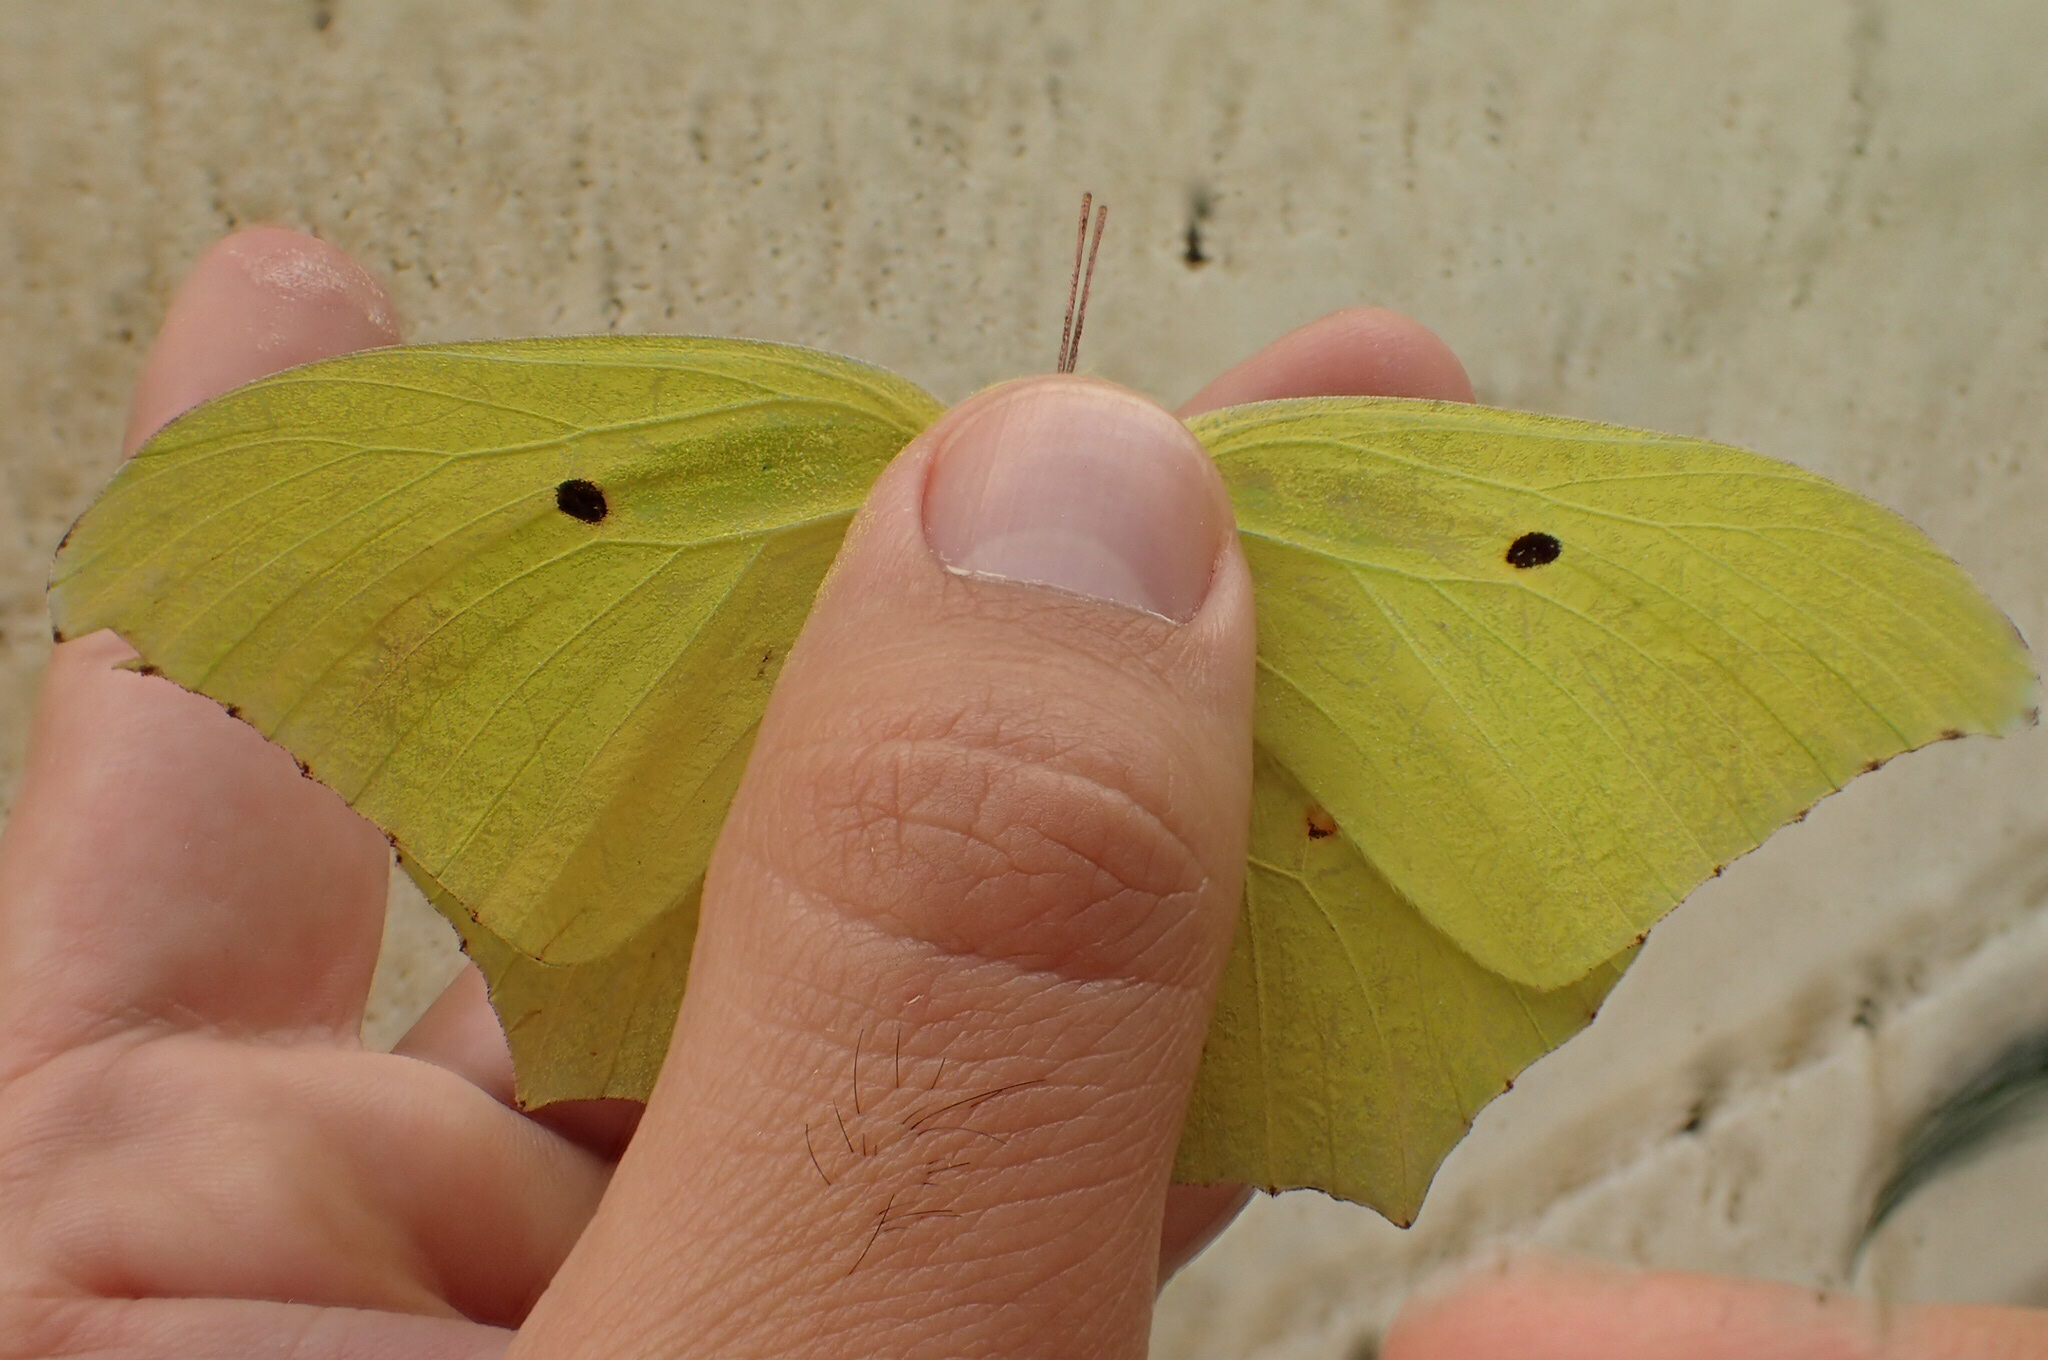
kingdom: Animalia
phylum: Arthropoda
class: Insecta
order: Lepidoptera
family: Pieridae
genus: Anteos
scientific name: Anteos maerula
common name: Angled sulphur
